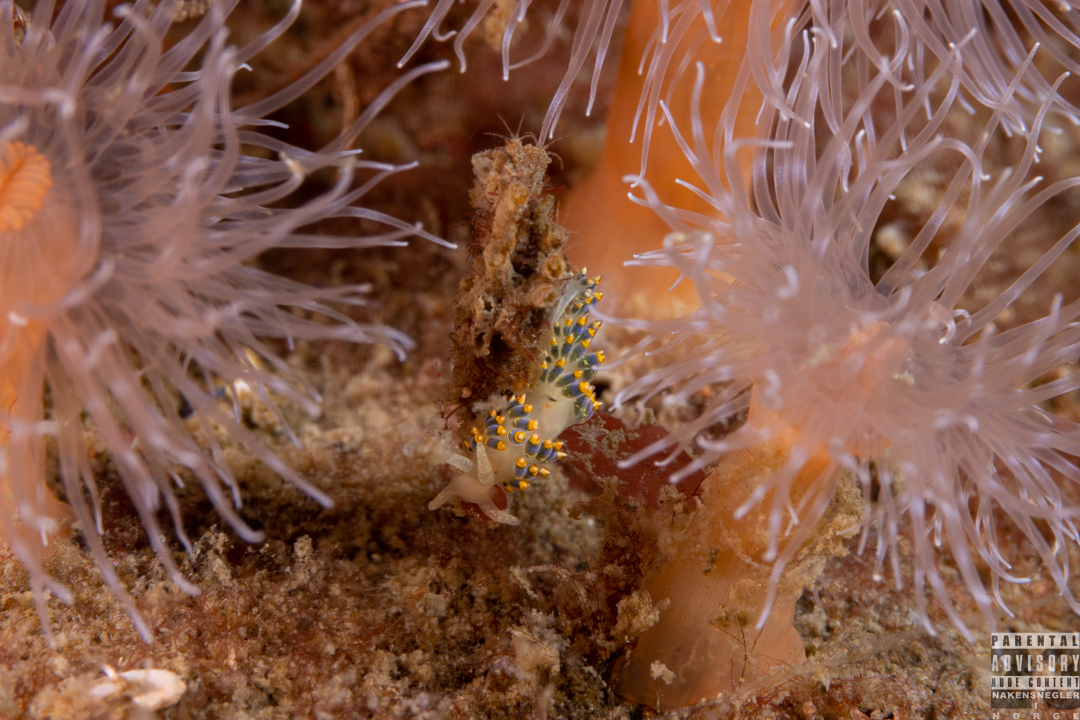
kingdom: Animalia
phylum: Mollusca
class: Gastropoda
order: Nudibranchia
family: Trinchesiidae
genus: Trinchesia
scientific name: Trinchesia cuanensis
